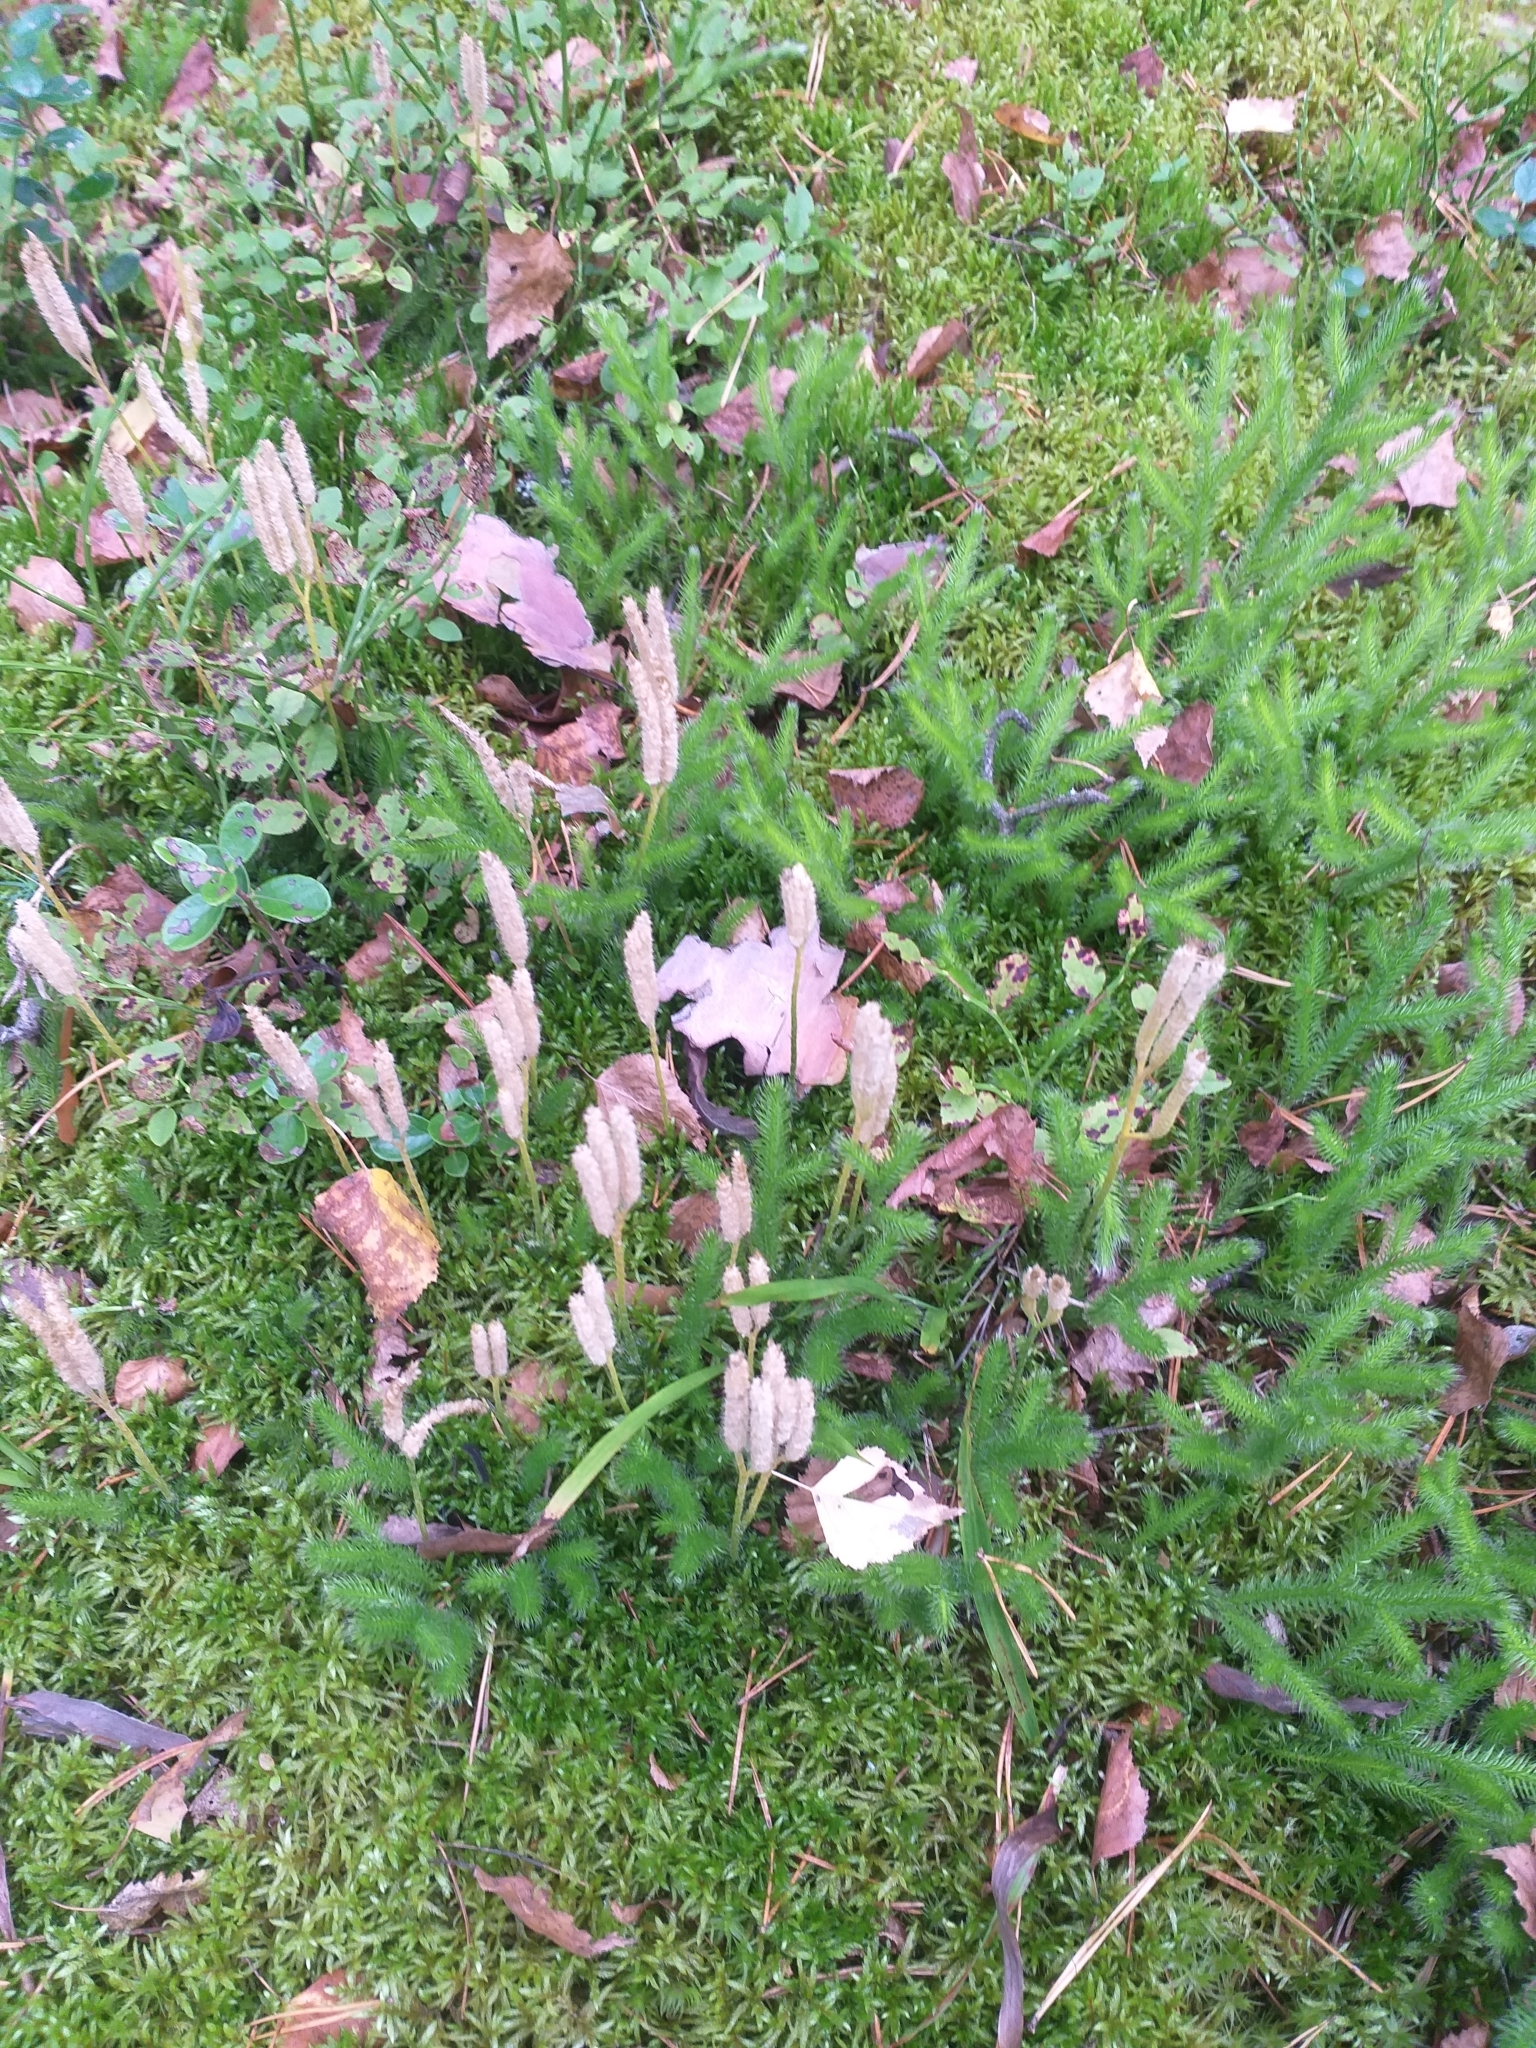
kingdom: Plantae
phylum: Tracheophyta
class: Lycopodiopsida
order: Lycopodiales
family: Lycopodiaceae
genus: Lycopodium
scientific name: Lycopodium clavatum
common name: Stag's-horn clubmoss
